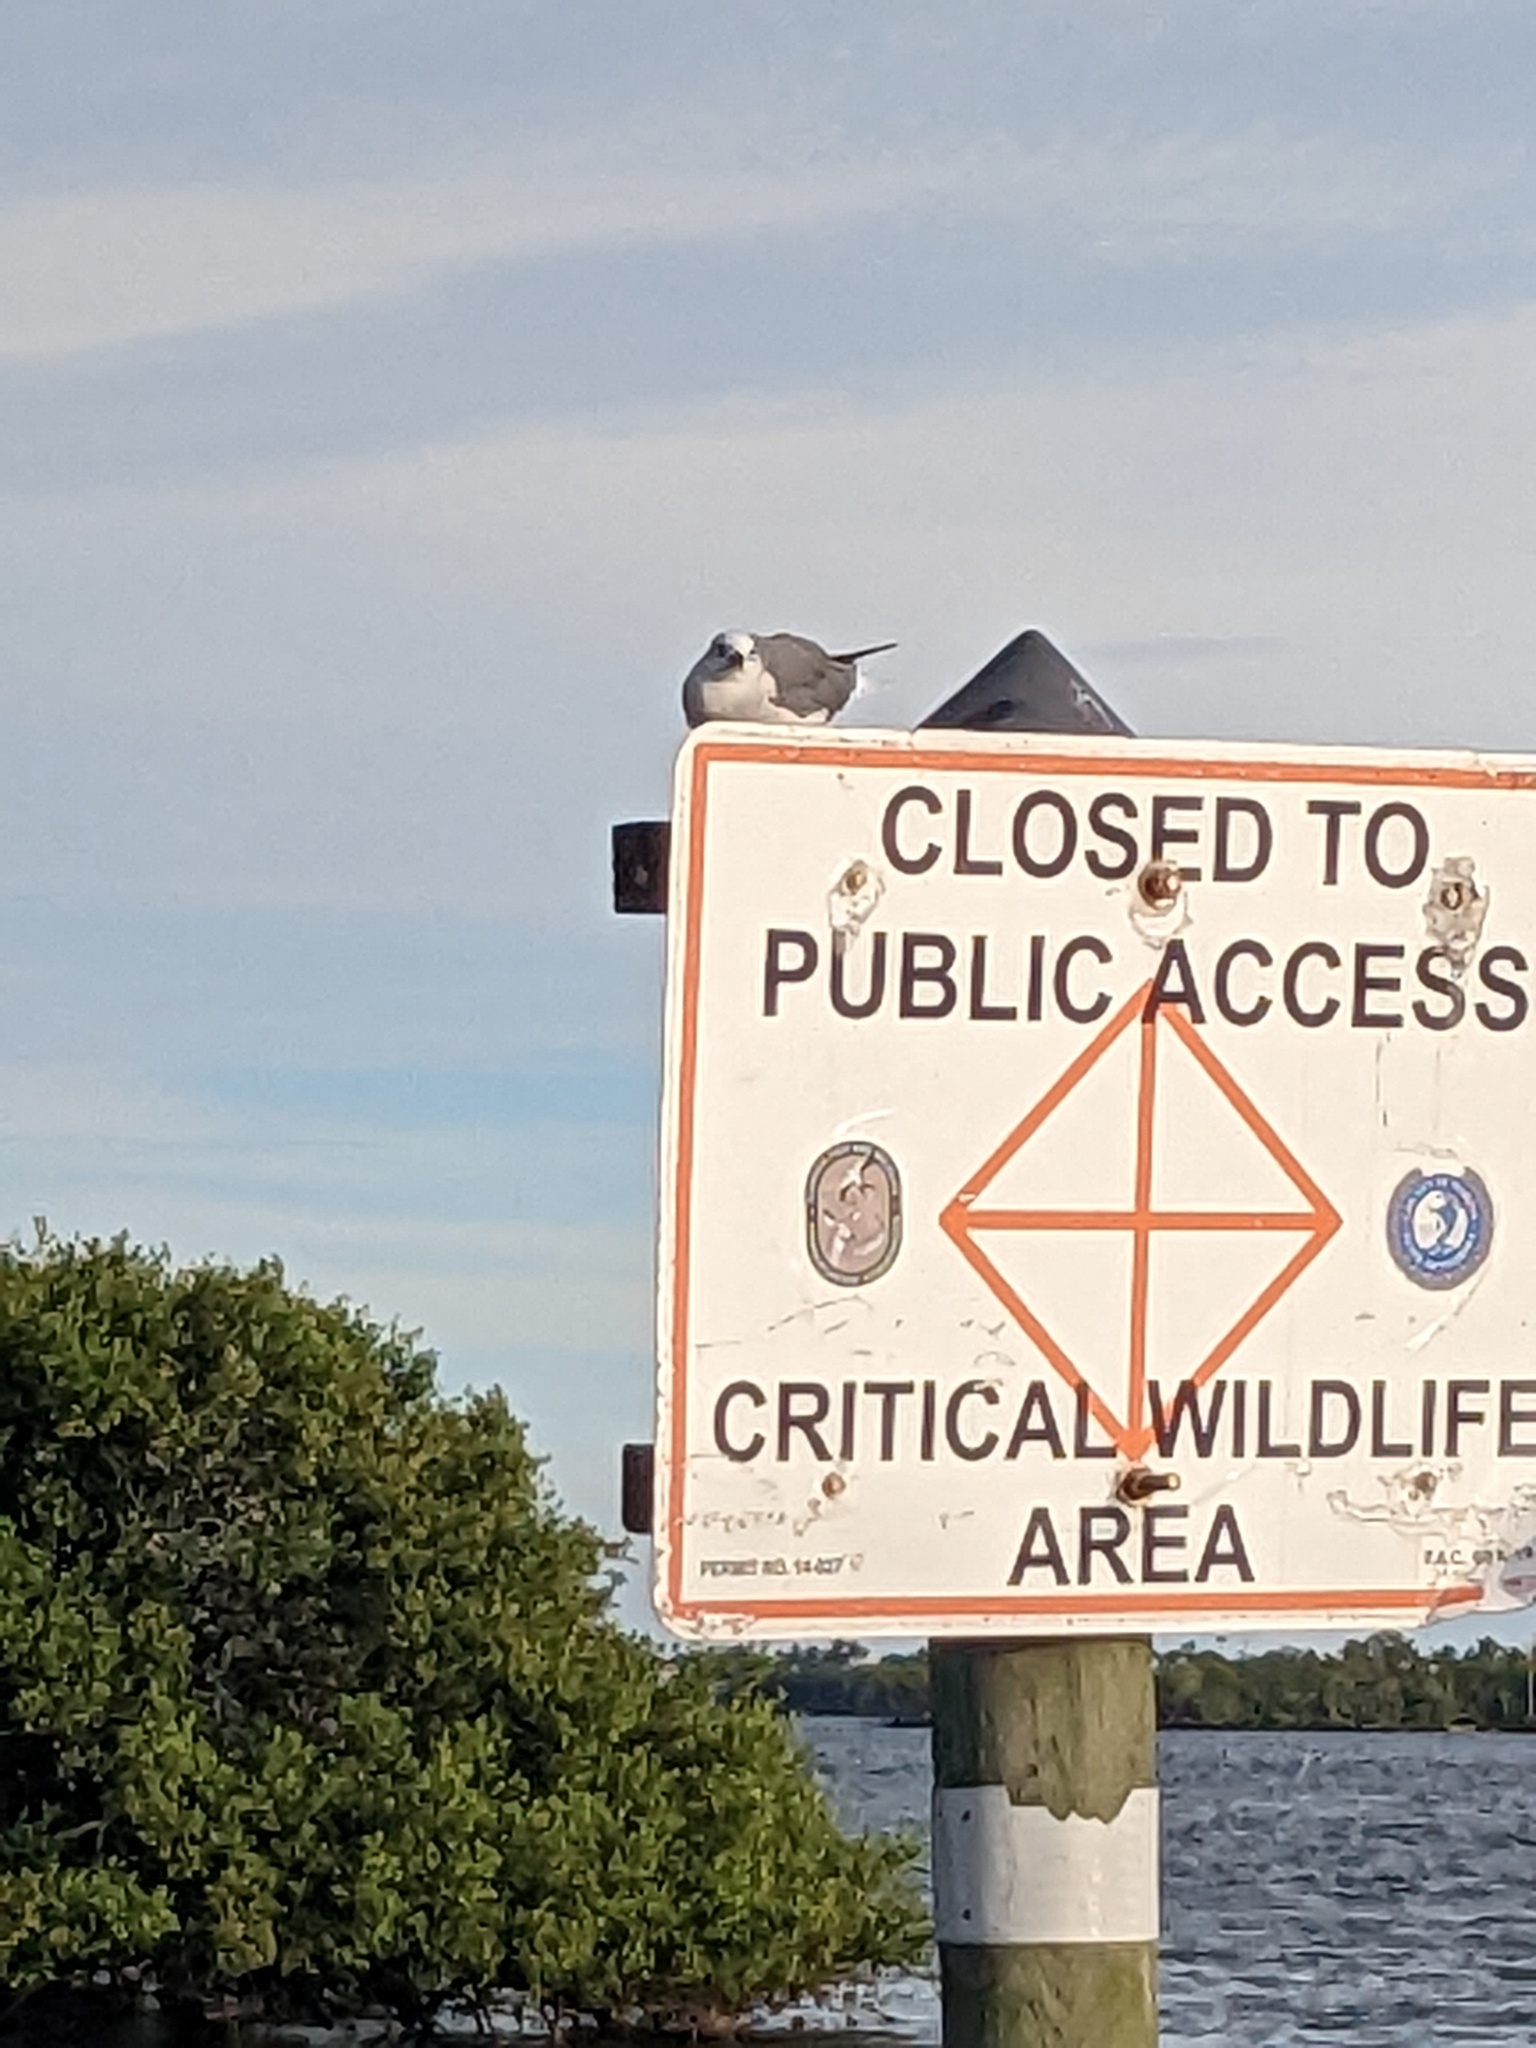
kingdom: Animalia
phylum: Chordata
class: Aves
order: Charadriiformes
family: Laridae
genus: Leucophaeus
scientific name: Leucophaeus atricilla
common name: Laughing gull
